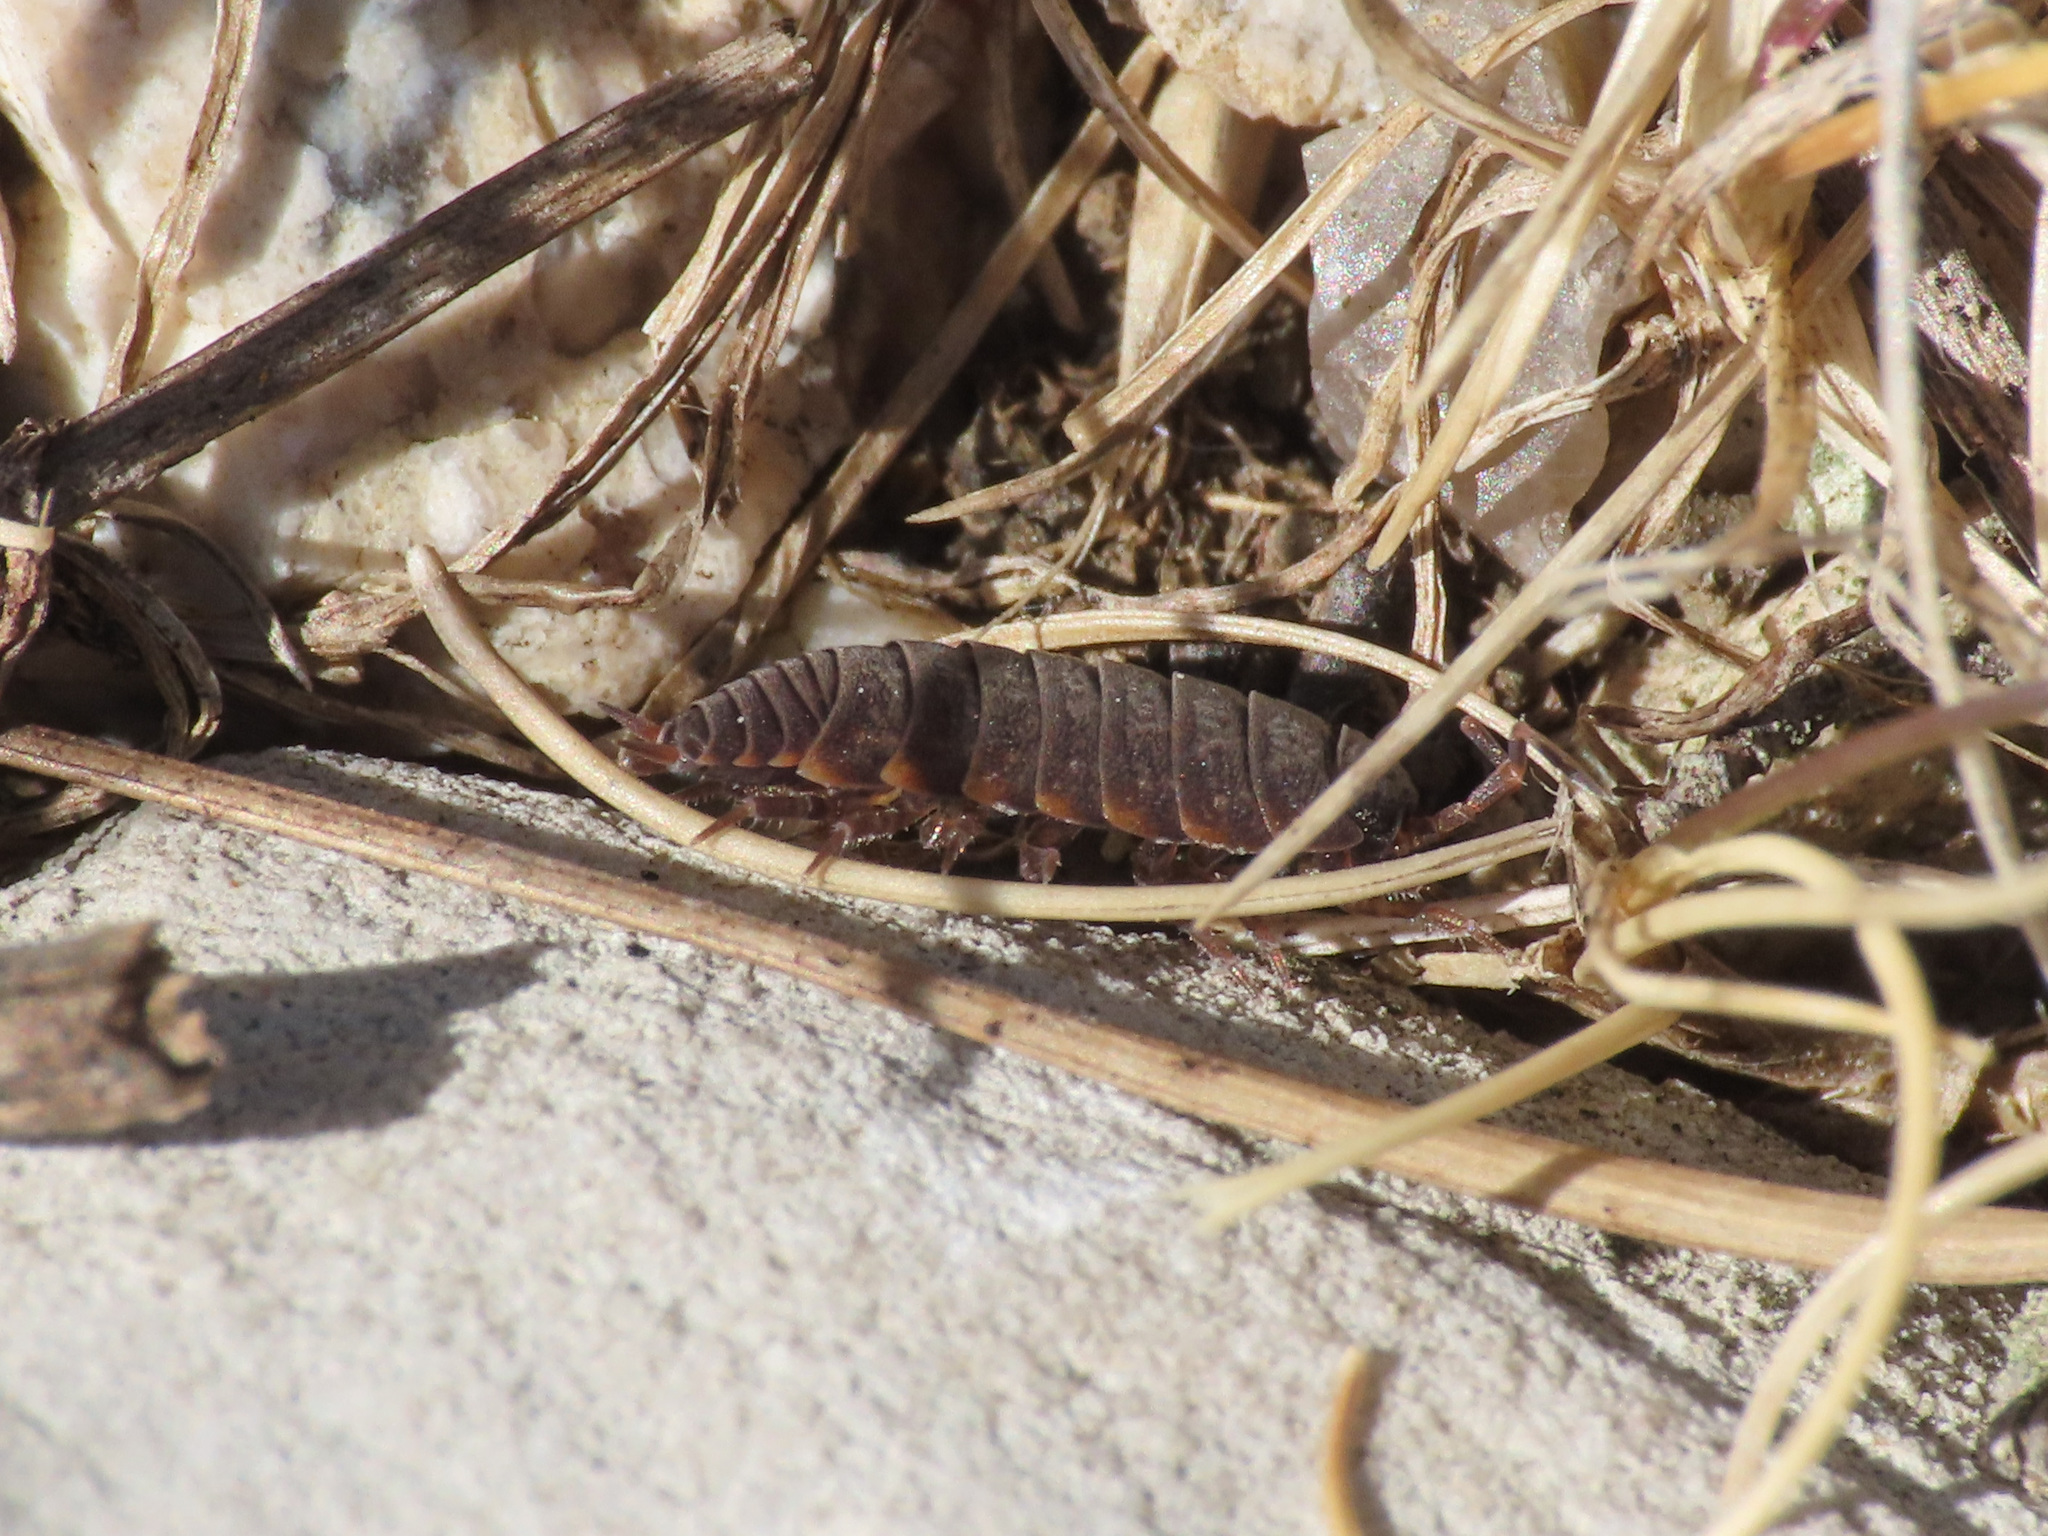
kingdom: Animalia
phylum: Arthropoda
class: Malacostraca
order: Isopoda
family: Porcellionidae
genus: Porcellionides
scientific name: Porcellionides aternanus
